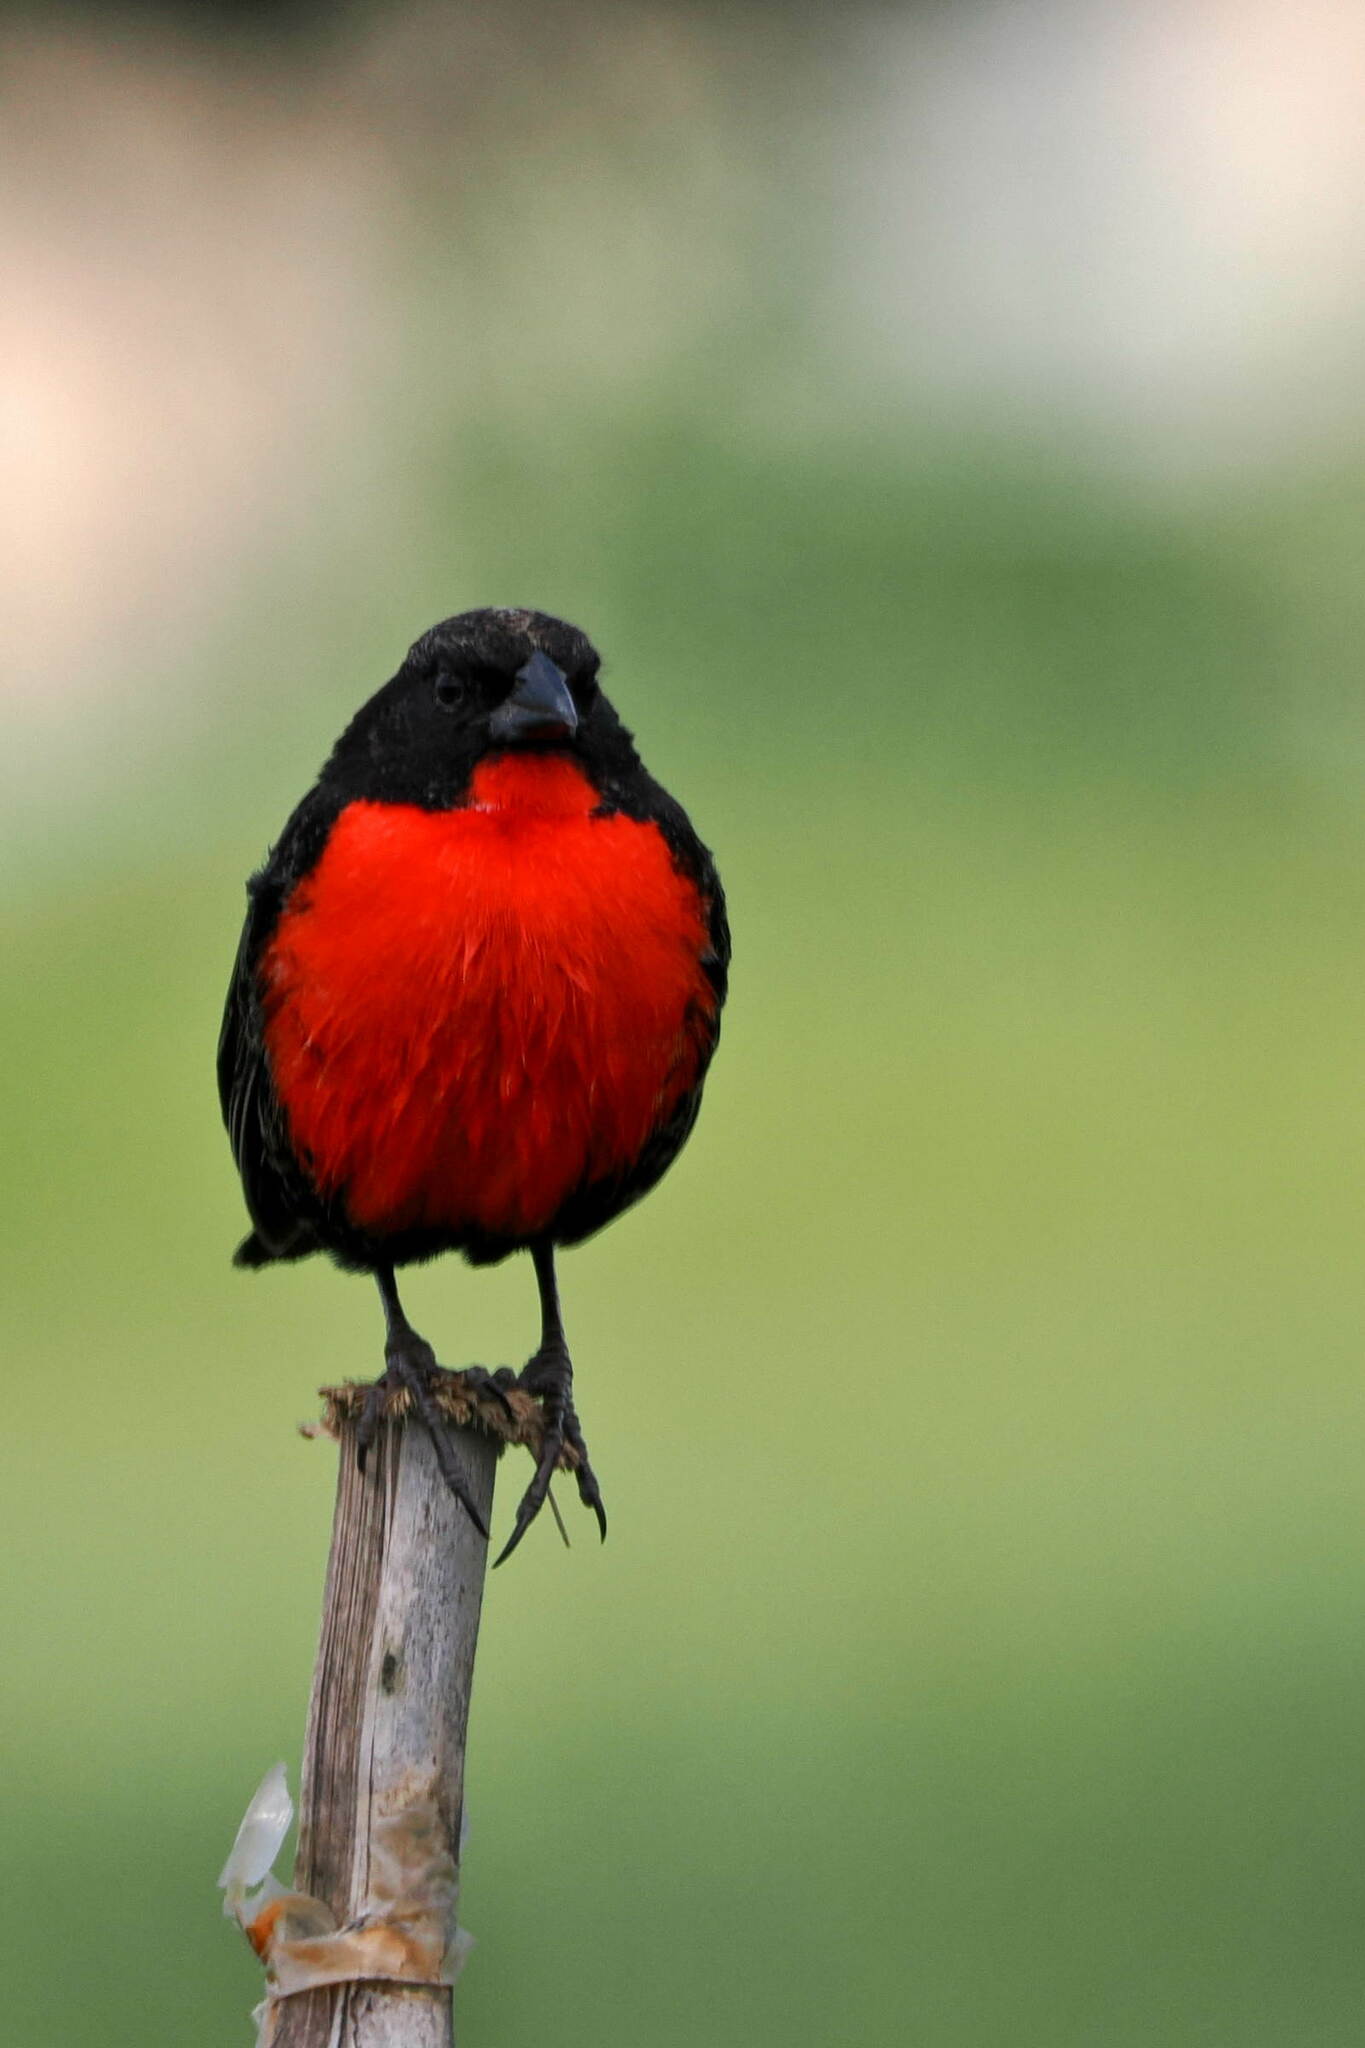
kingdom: Animalia
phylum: Chordata
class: Aves
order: Passeriformes
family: Icteridae
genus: Sturnella
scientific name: Sturnella militaris
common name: Red-breasted blackbird
